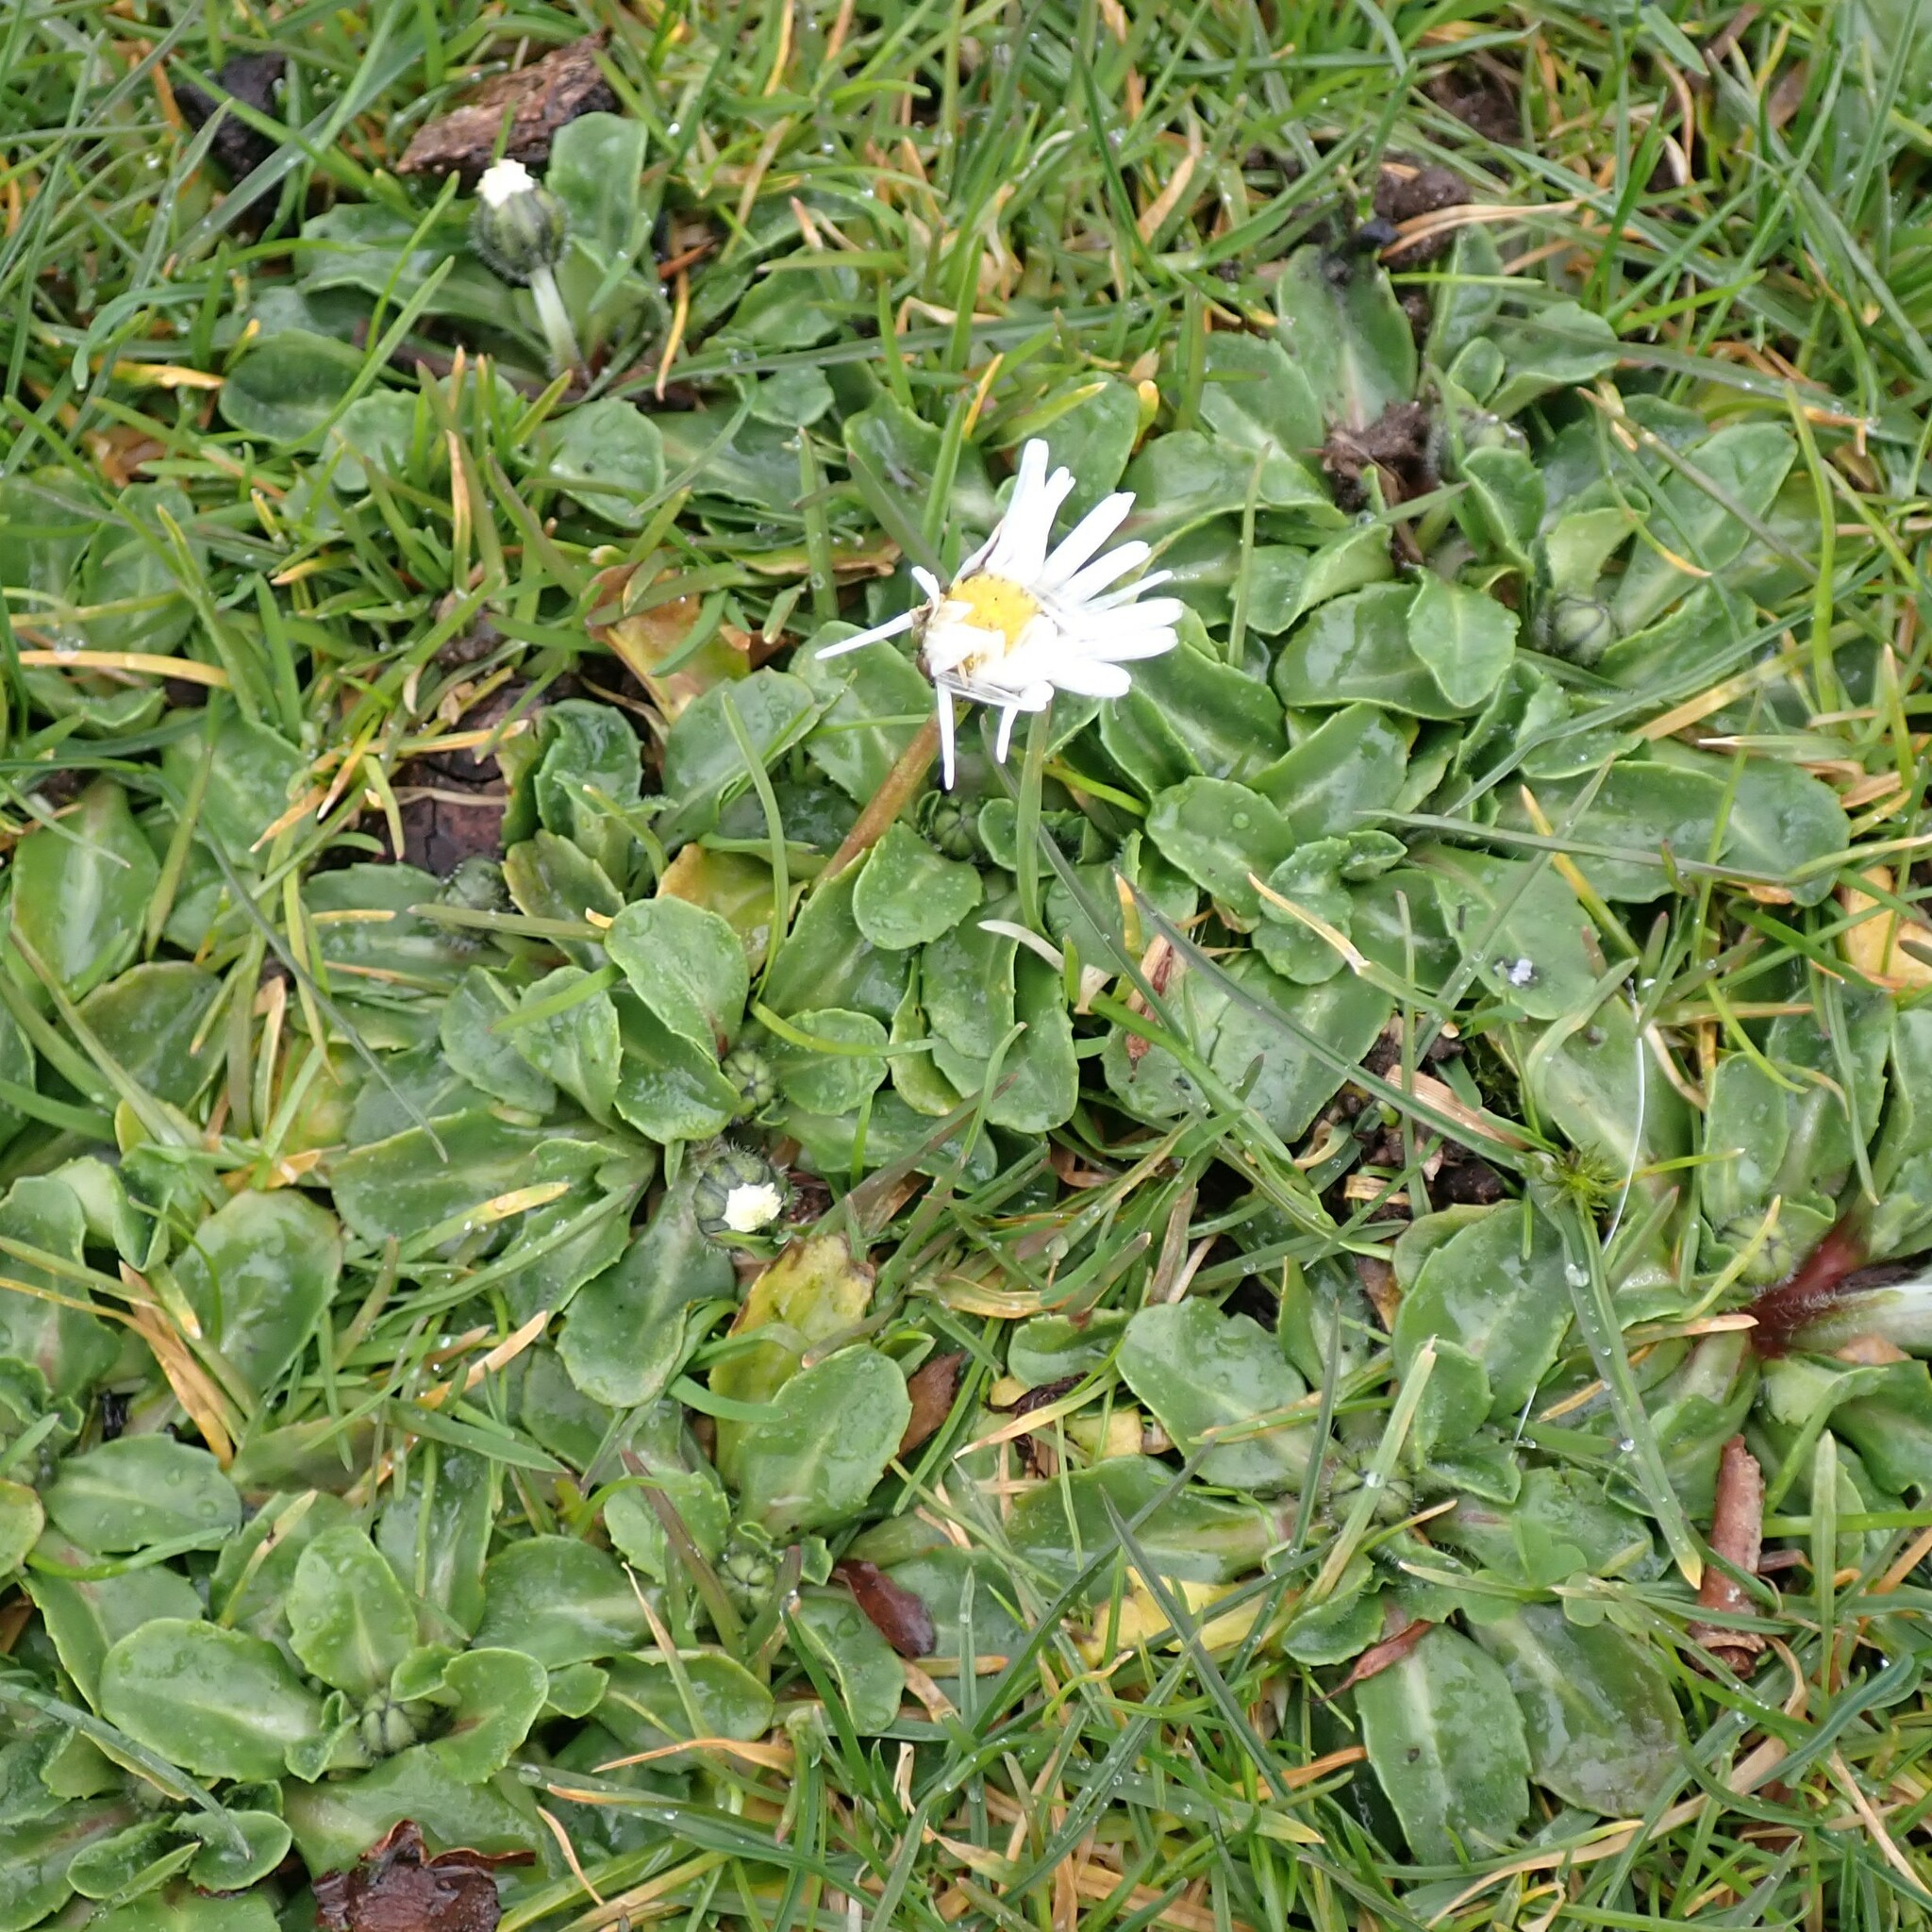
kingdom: Plantae
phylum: Tracheophyta
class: Magnoliopsida
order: Asterales
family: Asteraceae
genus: Bellis
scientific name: Bellis perennis
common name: Lawndaisy
